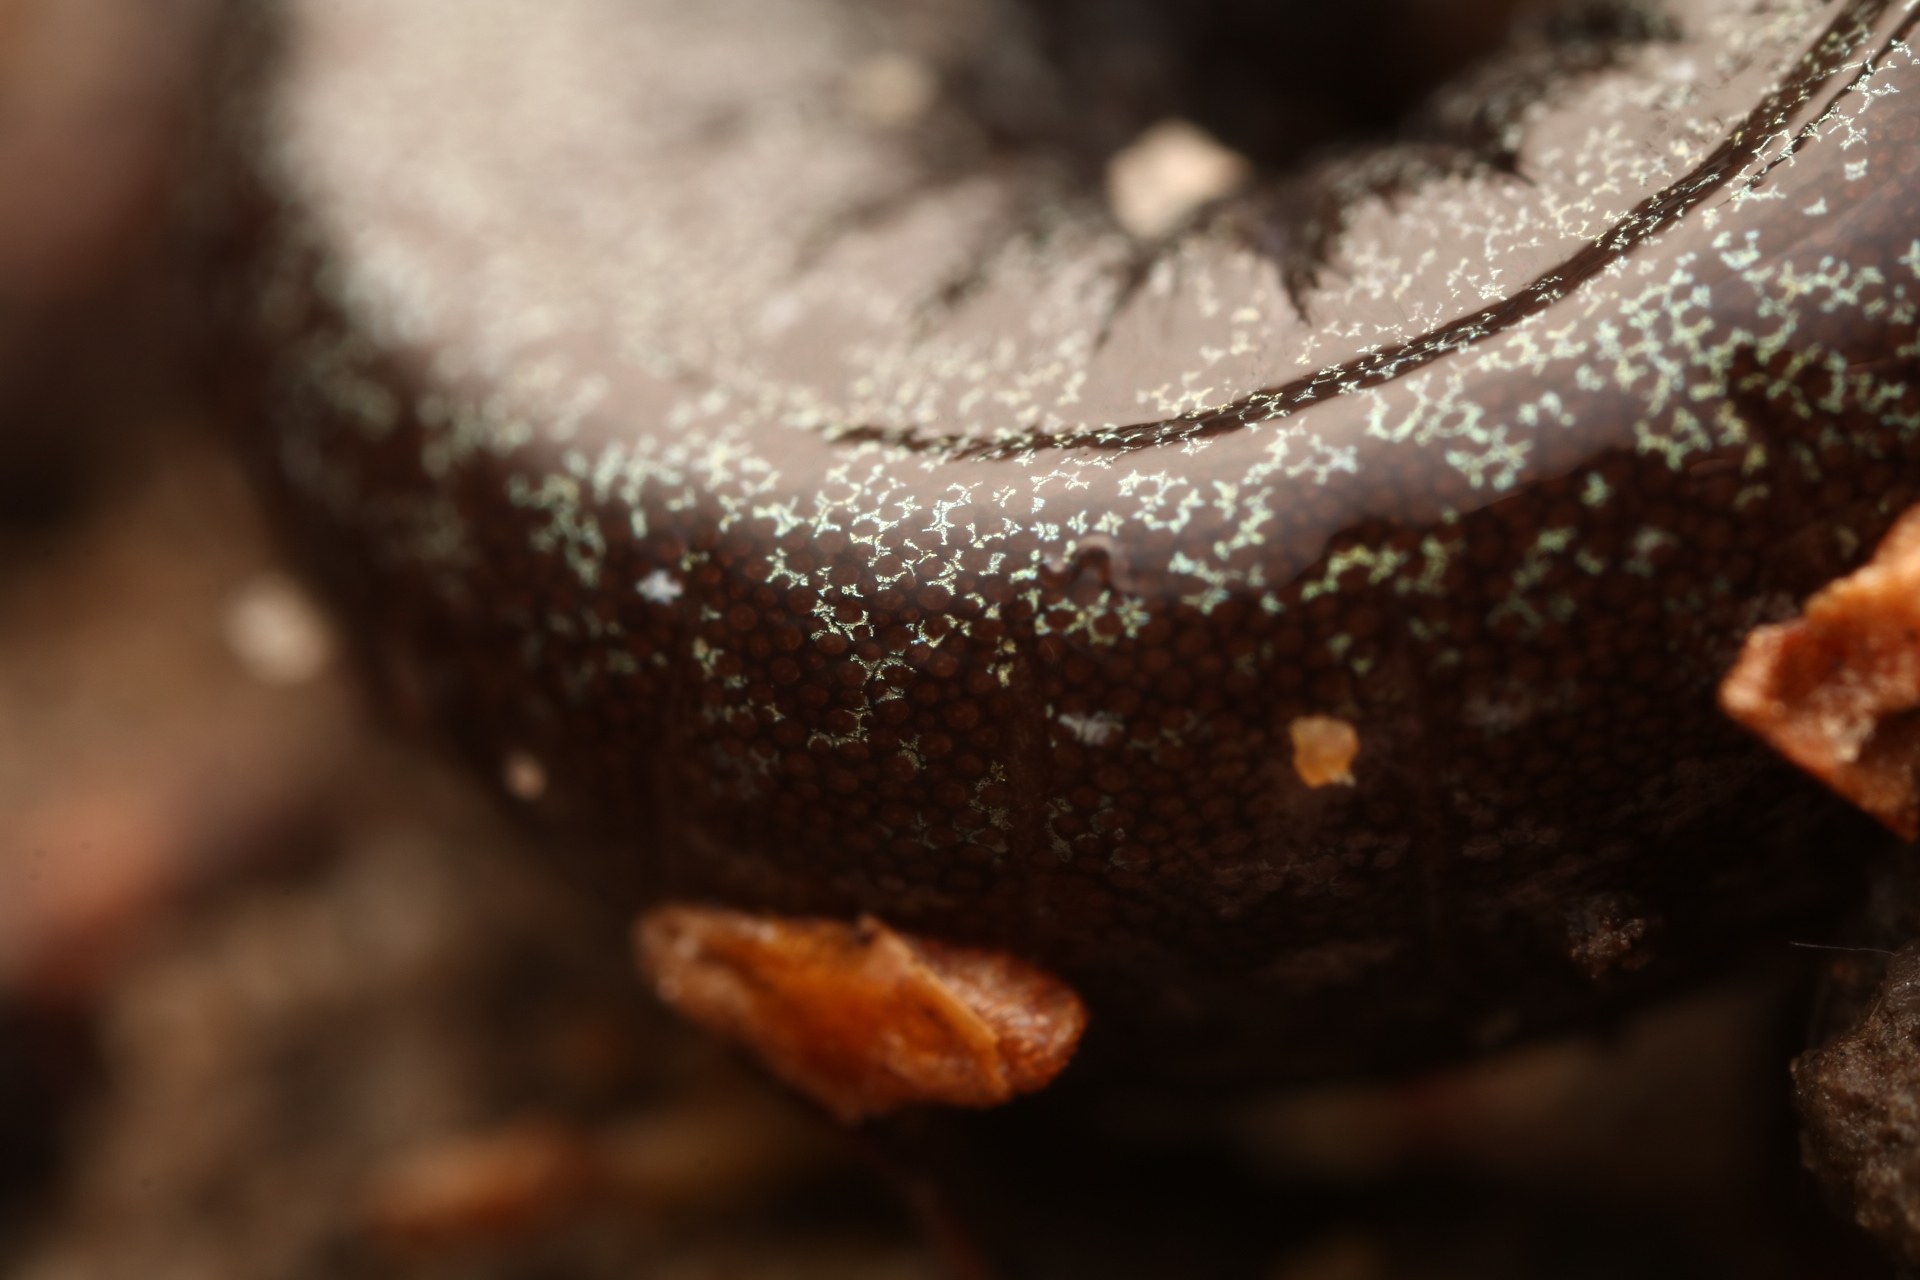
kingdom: Animalia
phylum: Chordata
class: Amphibia
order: Caudata
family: Plethodontidae
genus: Plethodon
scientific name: Plethodon cinereus
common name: Redback salamander
